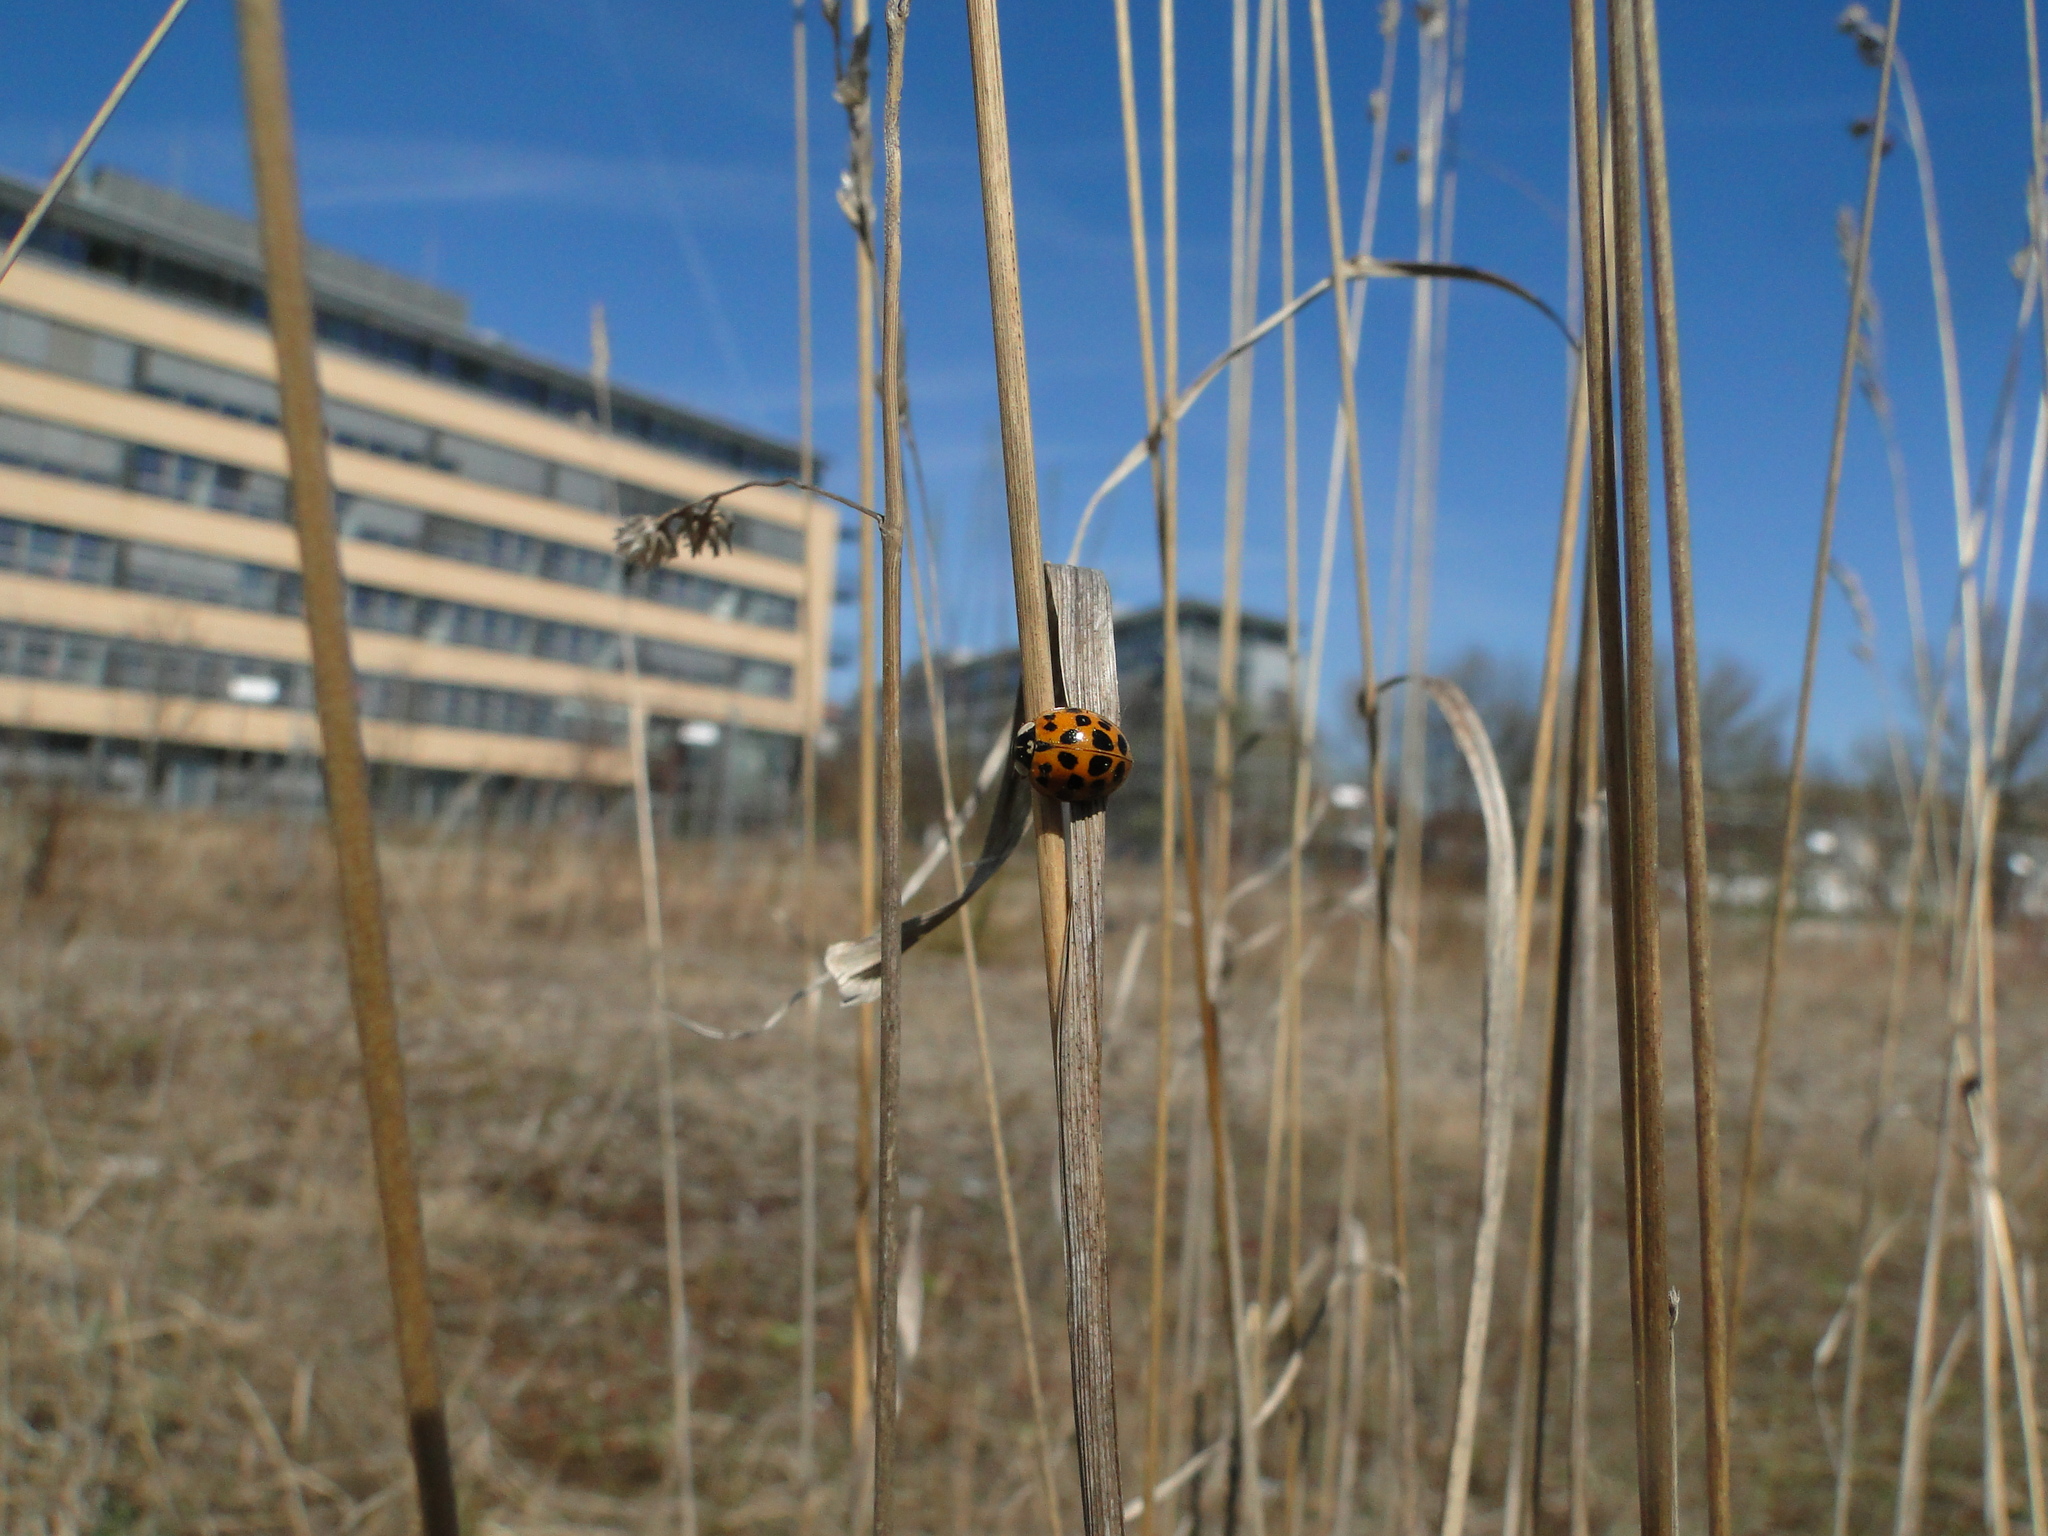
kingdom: Animalia
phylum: Arthropoda
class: Insecta
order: Coleoptera
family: Coccinellidae
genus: Harmonia
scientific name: Harmonia axyridis
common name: Harlequin ladybird
